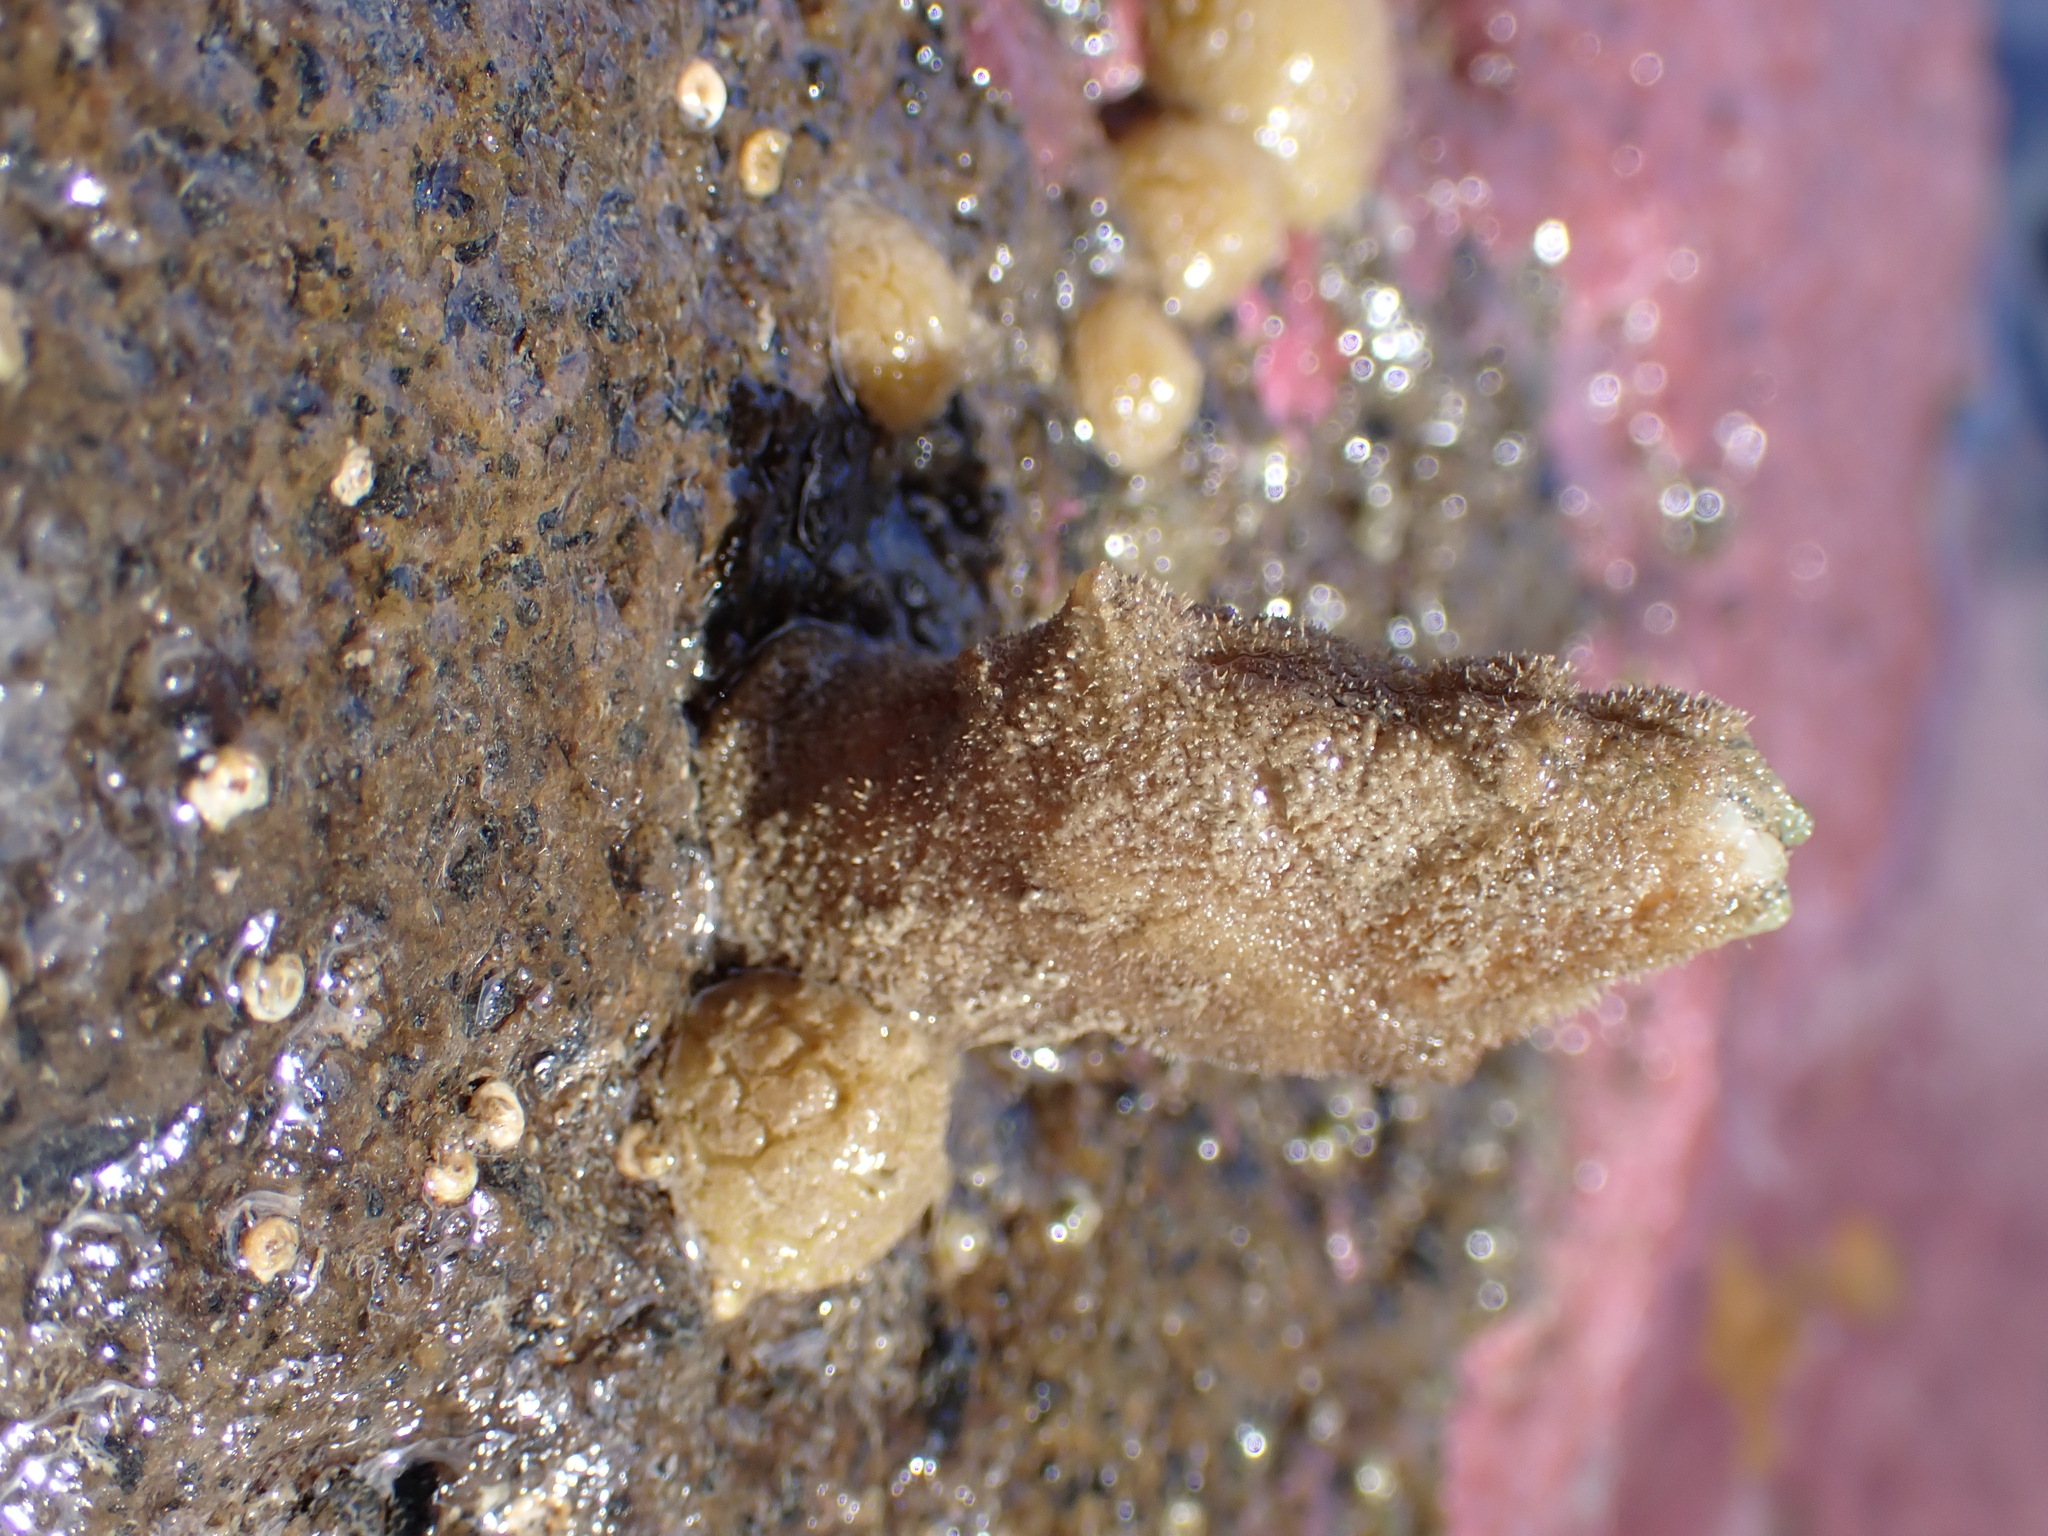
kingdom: Animalia
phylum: Arthropoda
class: Maxillopoda
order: Pedunculata
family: Calanticidae
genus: Calantica
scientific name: Calantica villosa
